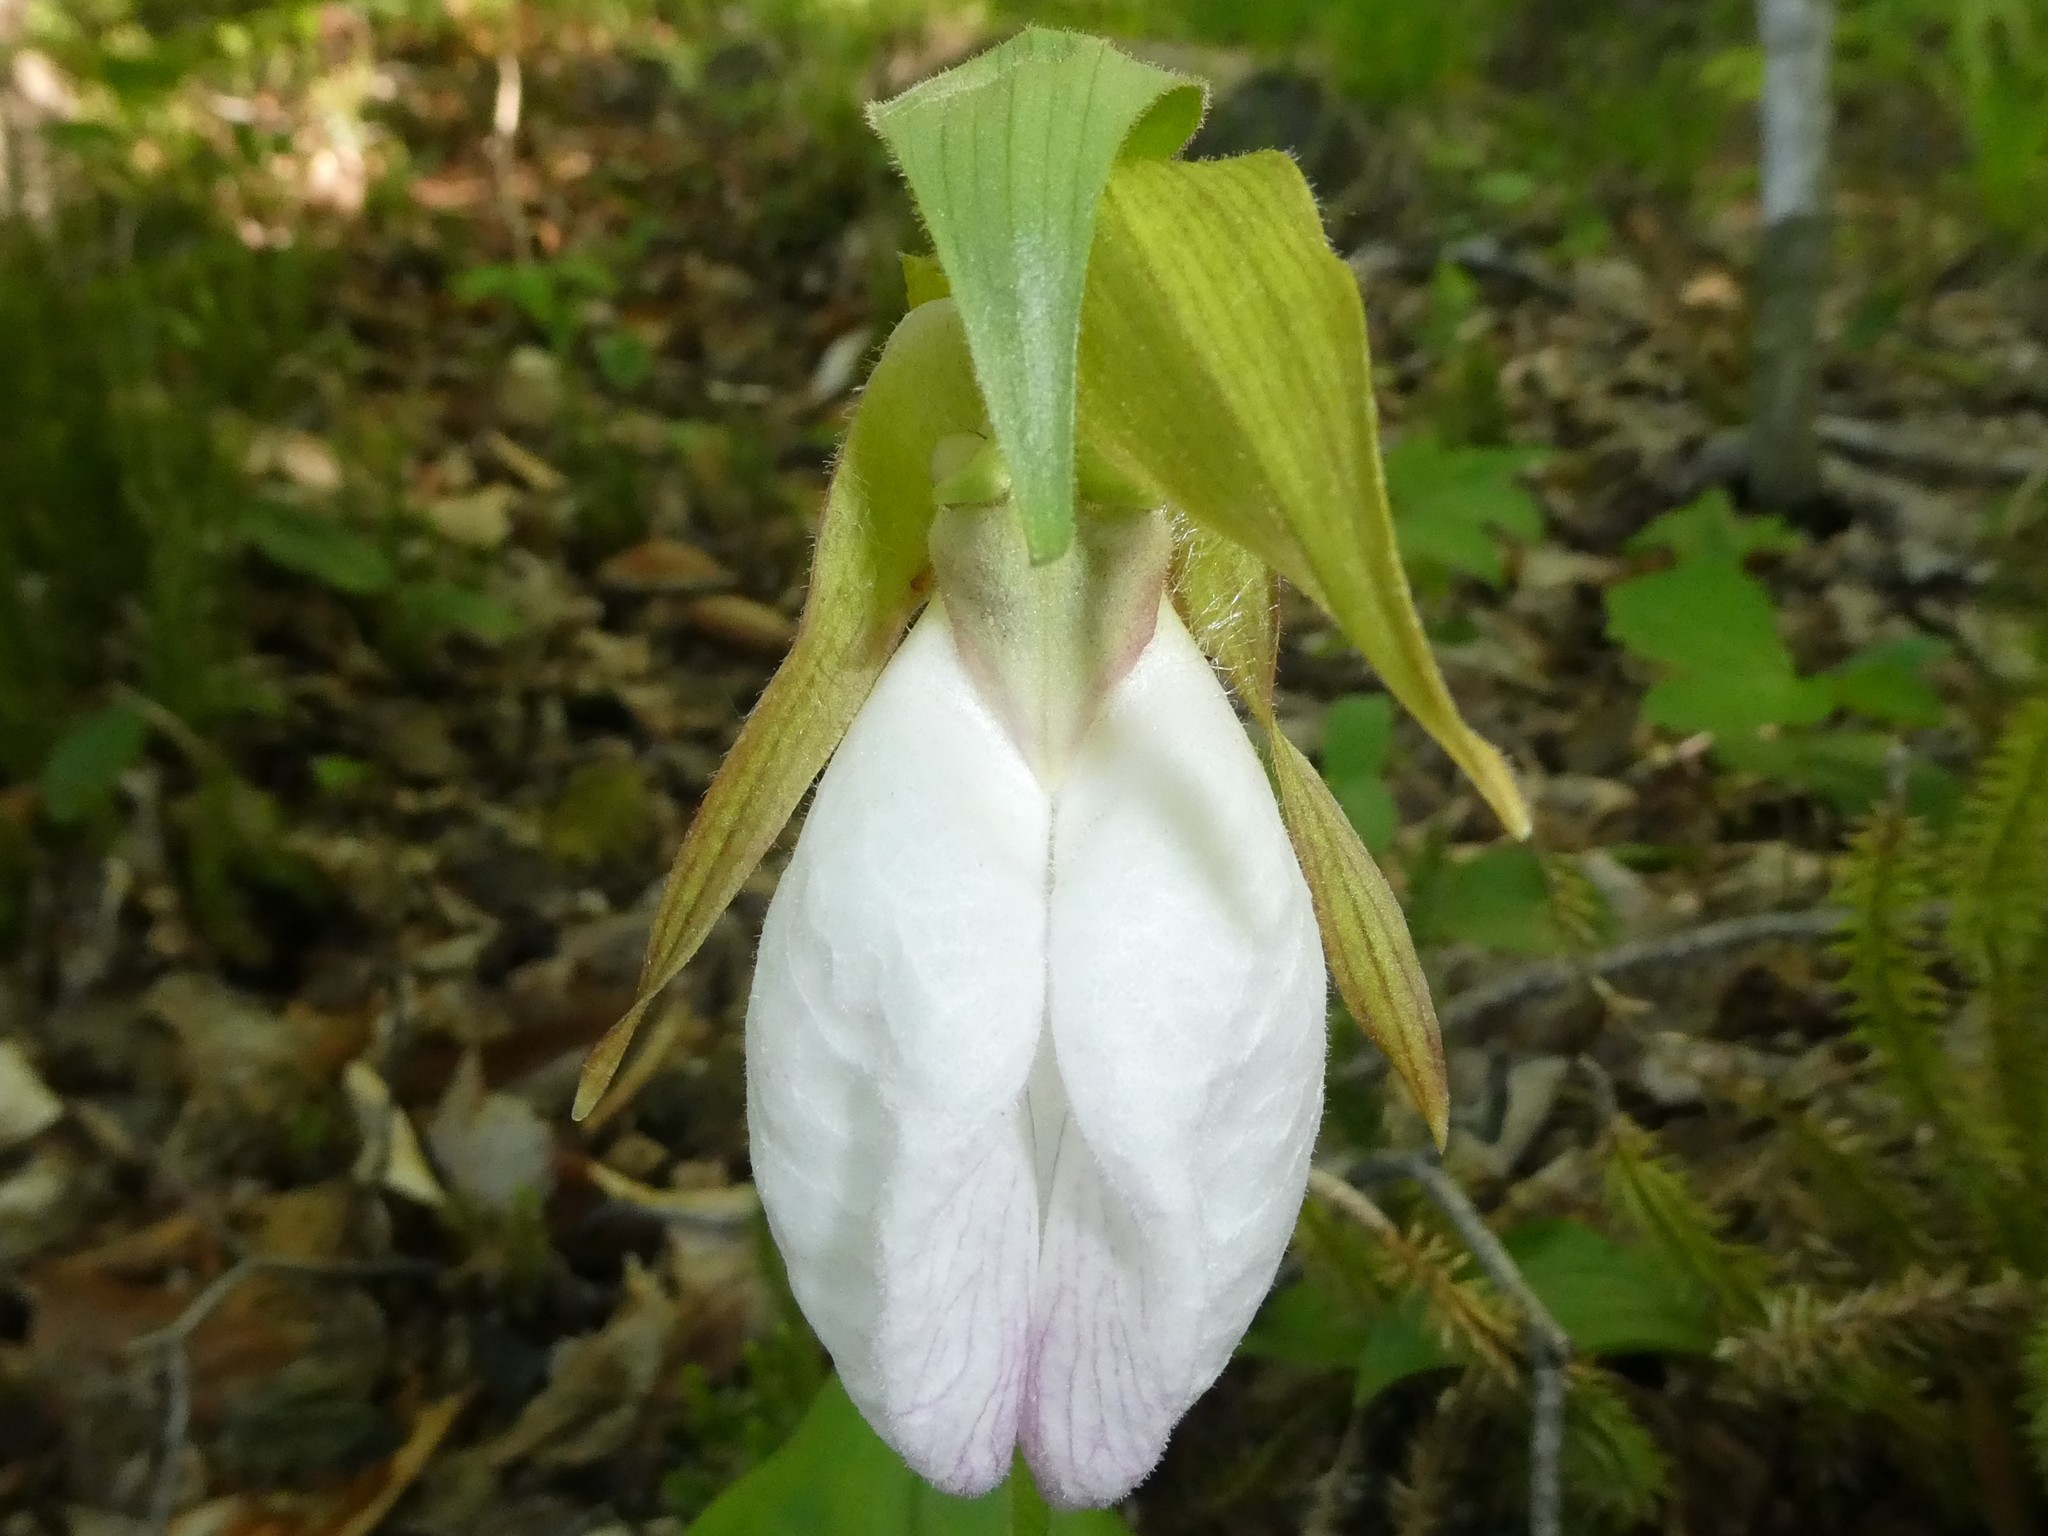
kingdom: Plantae
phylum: Tracheophyta
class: Liliopsida
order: Asparagales
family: Orchidaceae
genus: Cypripedium
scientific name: Cypripedium acaule
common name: Pink lady's-slipper
